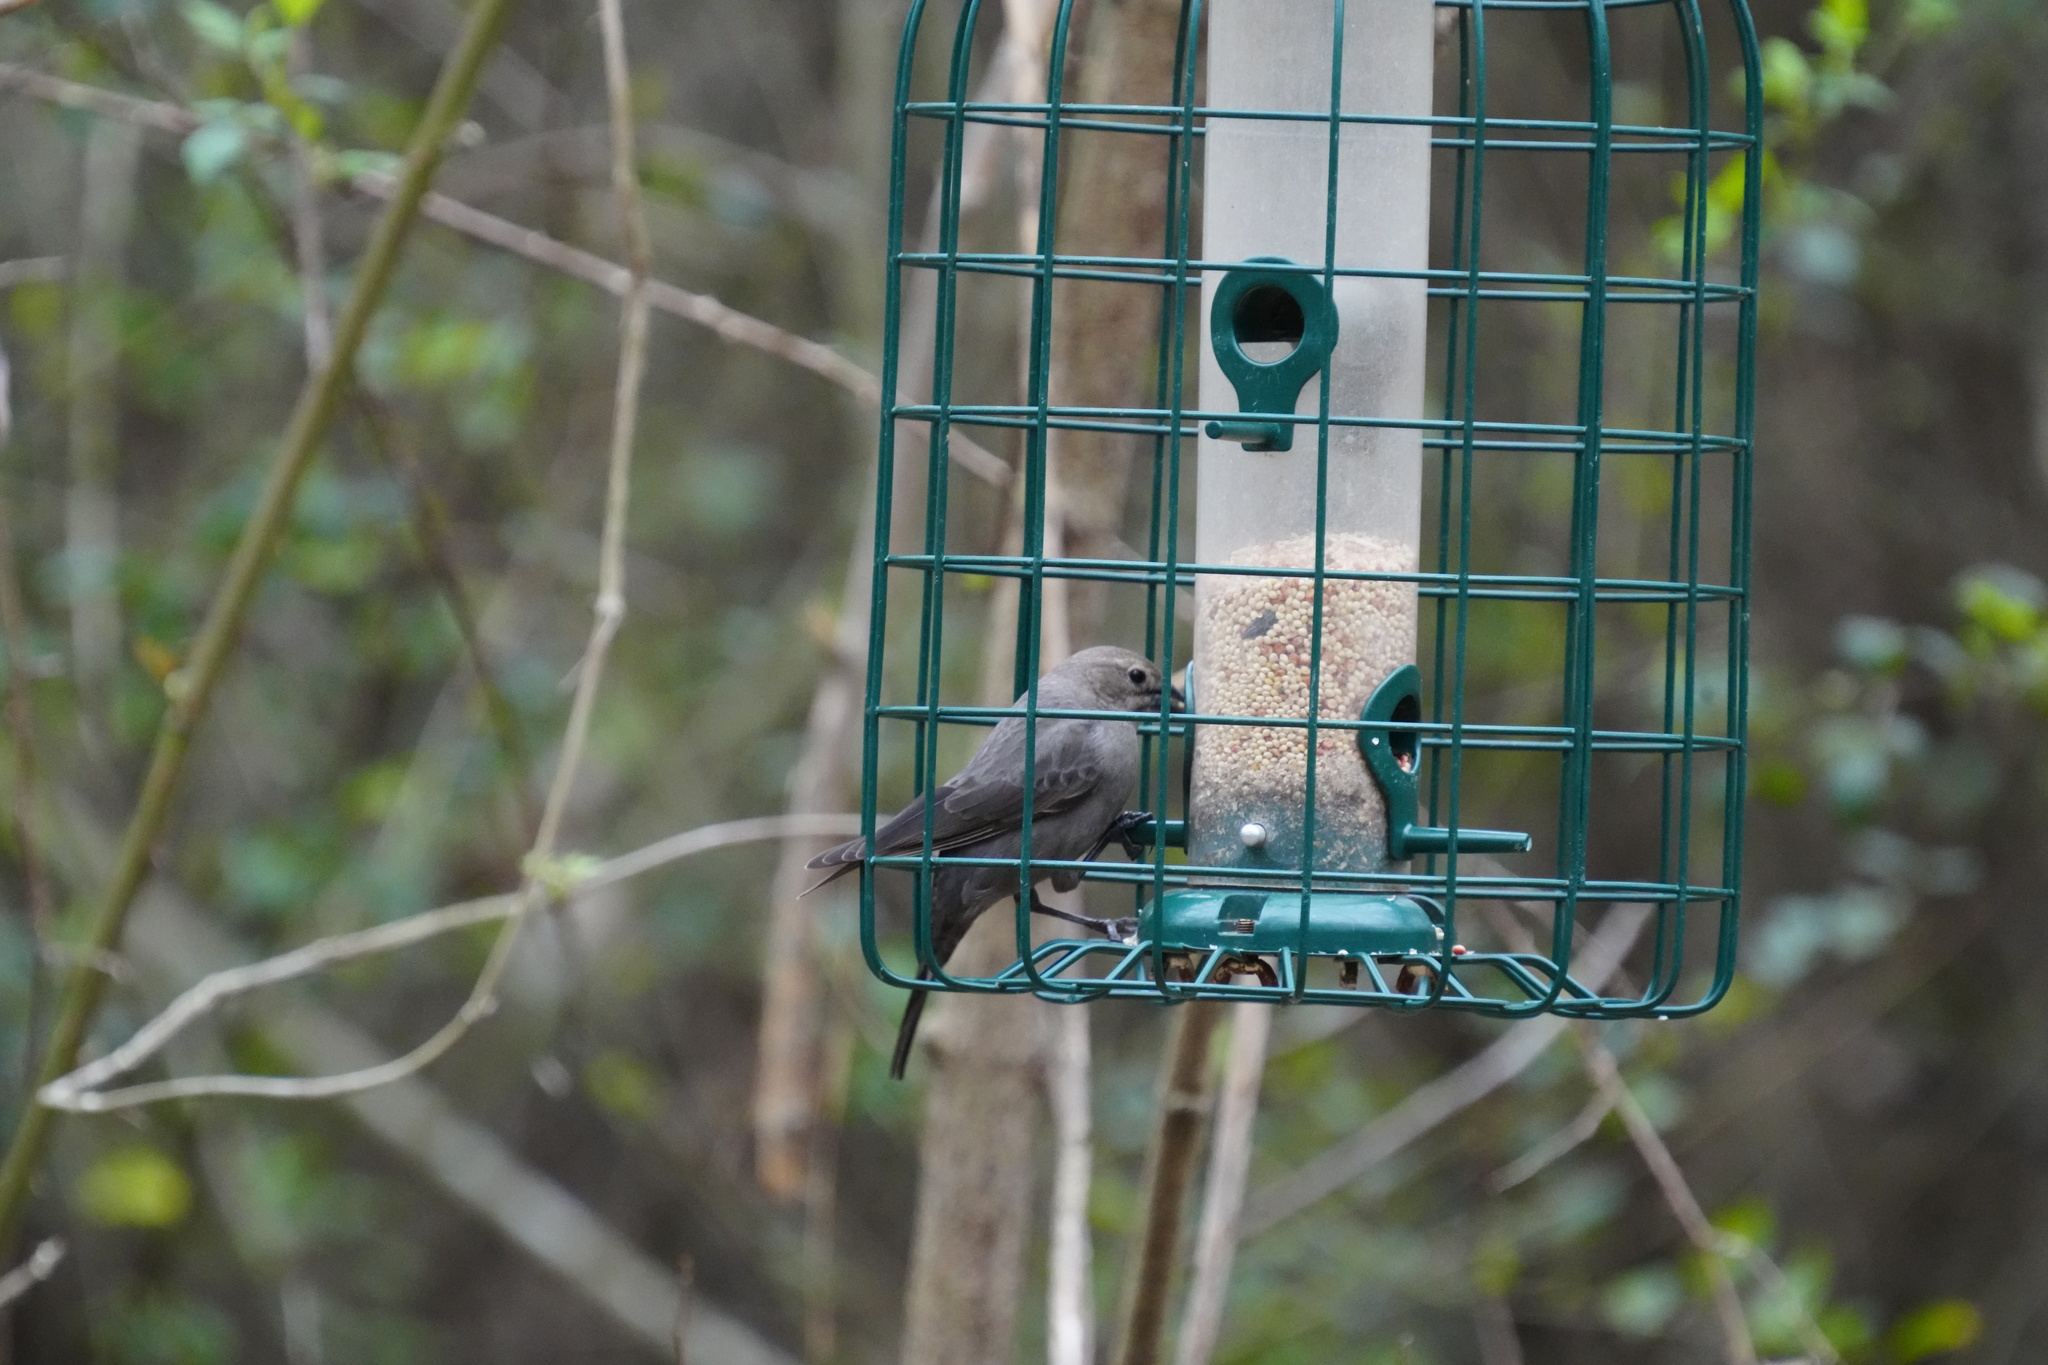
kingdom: Animalia
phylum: Chordata
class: Aves
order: Passeriformes
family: Icteridae
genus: Molothrus
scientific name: Molothrus ater
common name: Brown-headed cowbird
